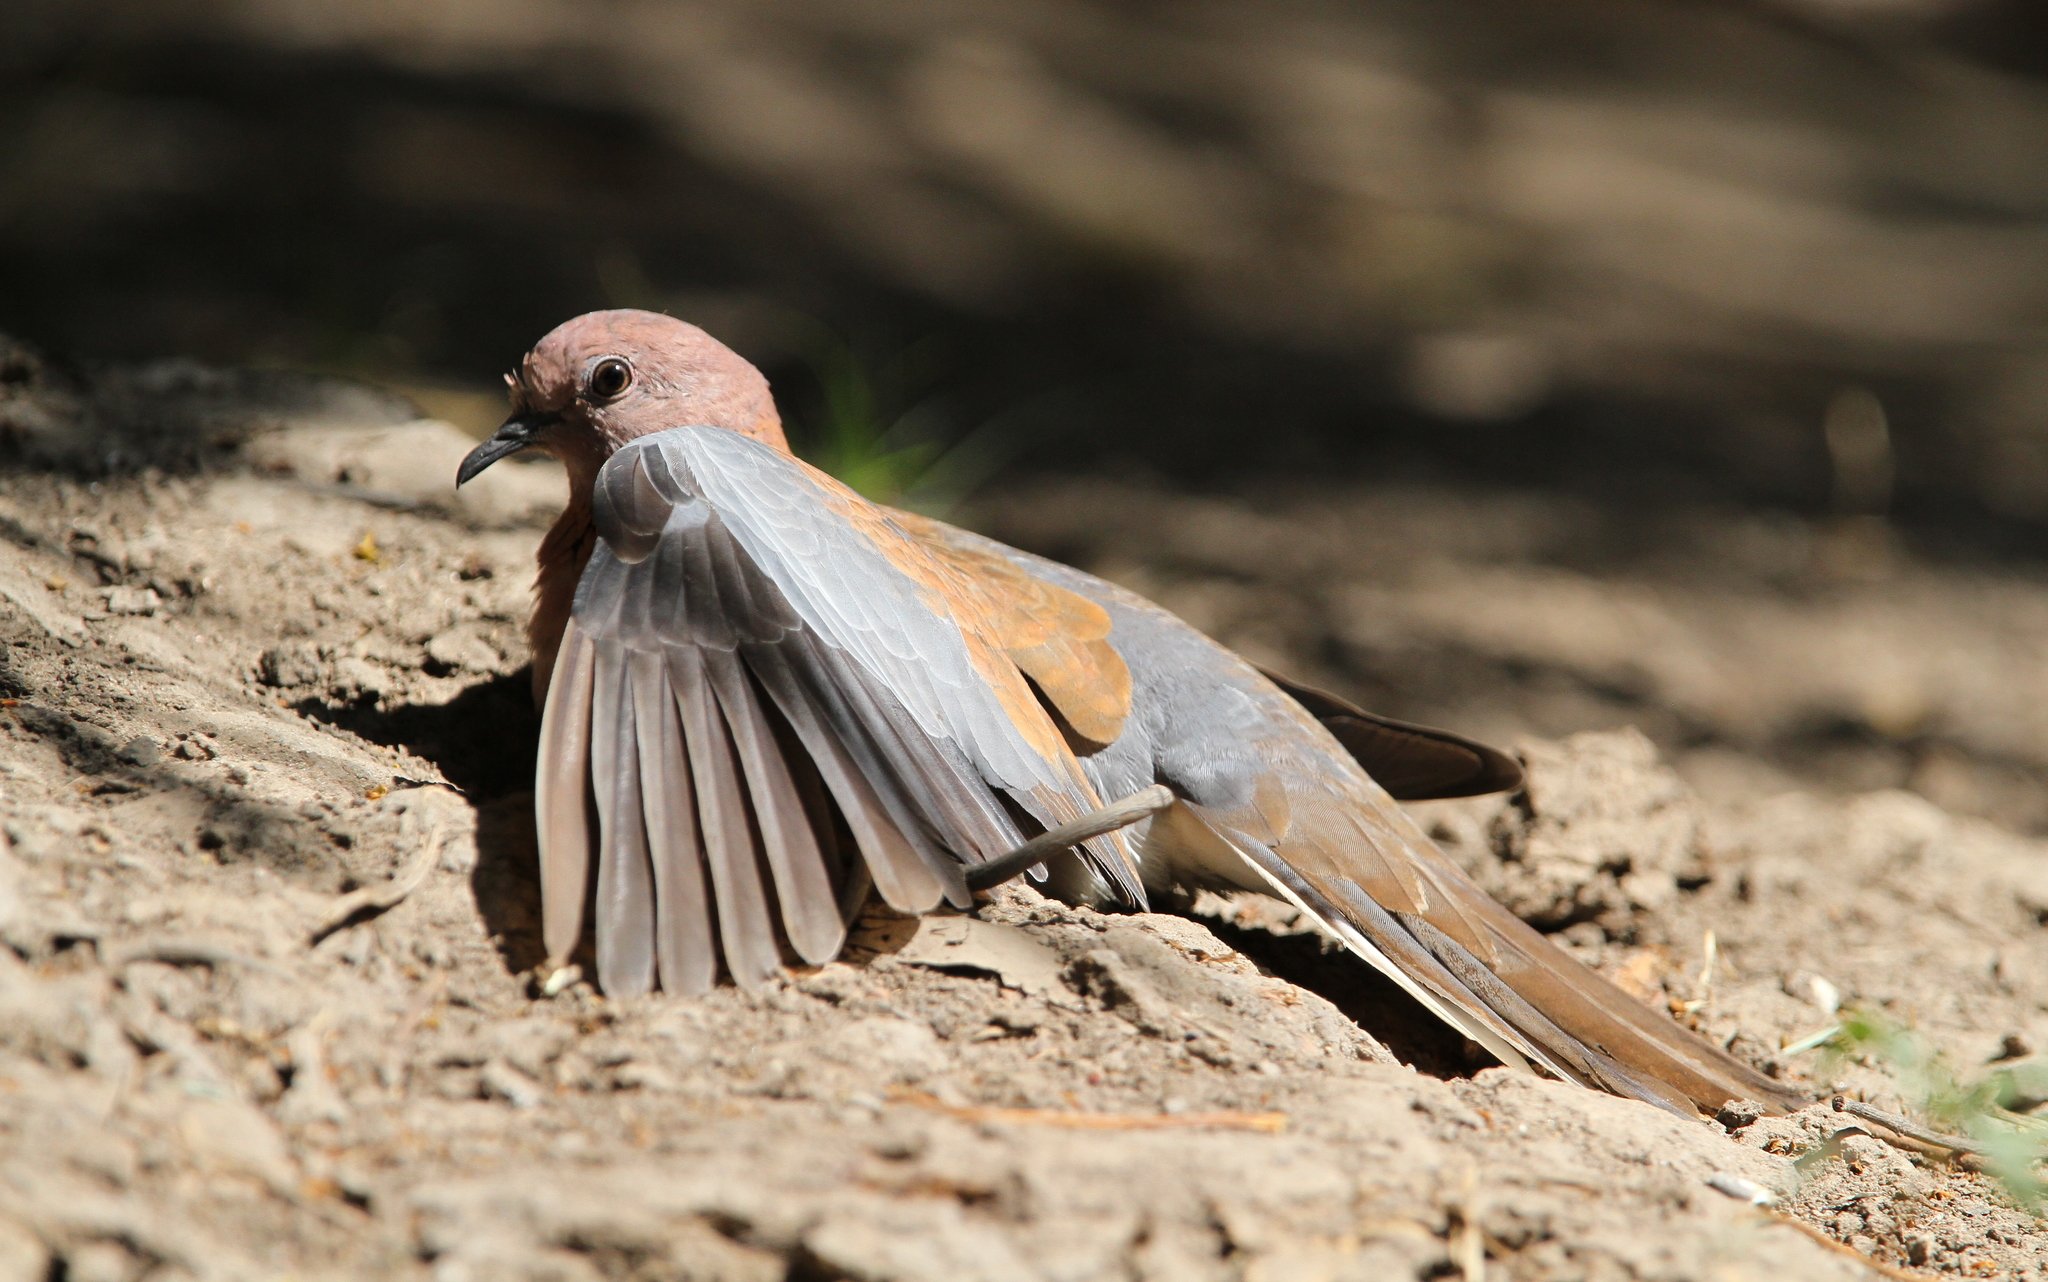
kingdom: Animalia
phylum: Chordata
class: Aves
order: Columbiformes
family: Columbidae
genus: Spilopelia
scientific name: Spilopelia senegalensis
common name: Laughing dove
